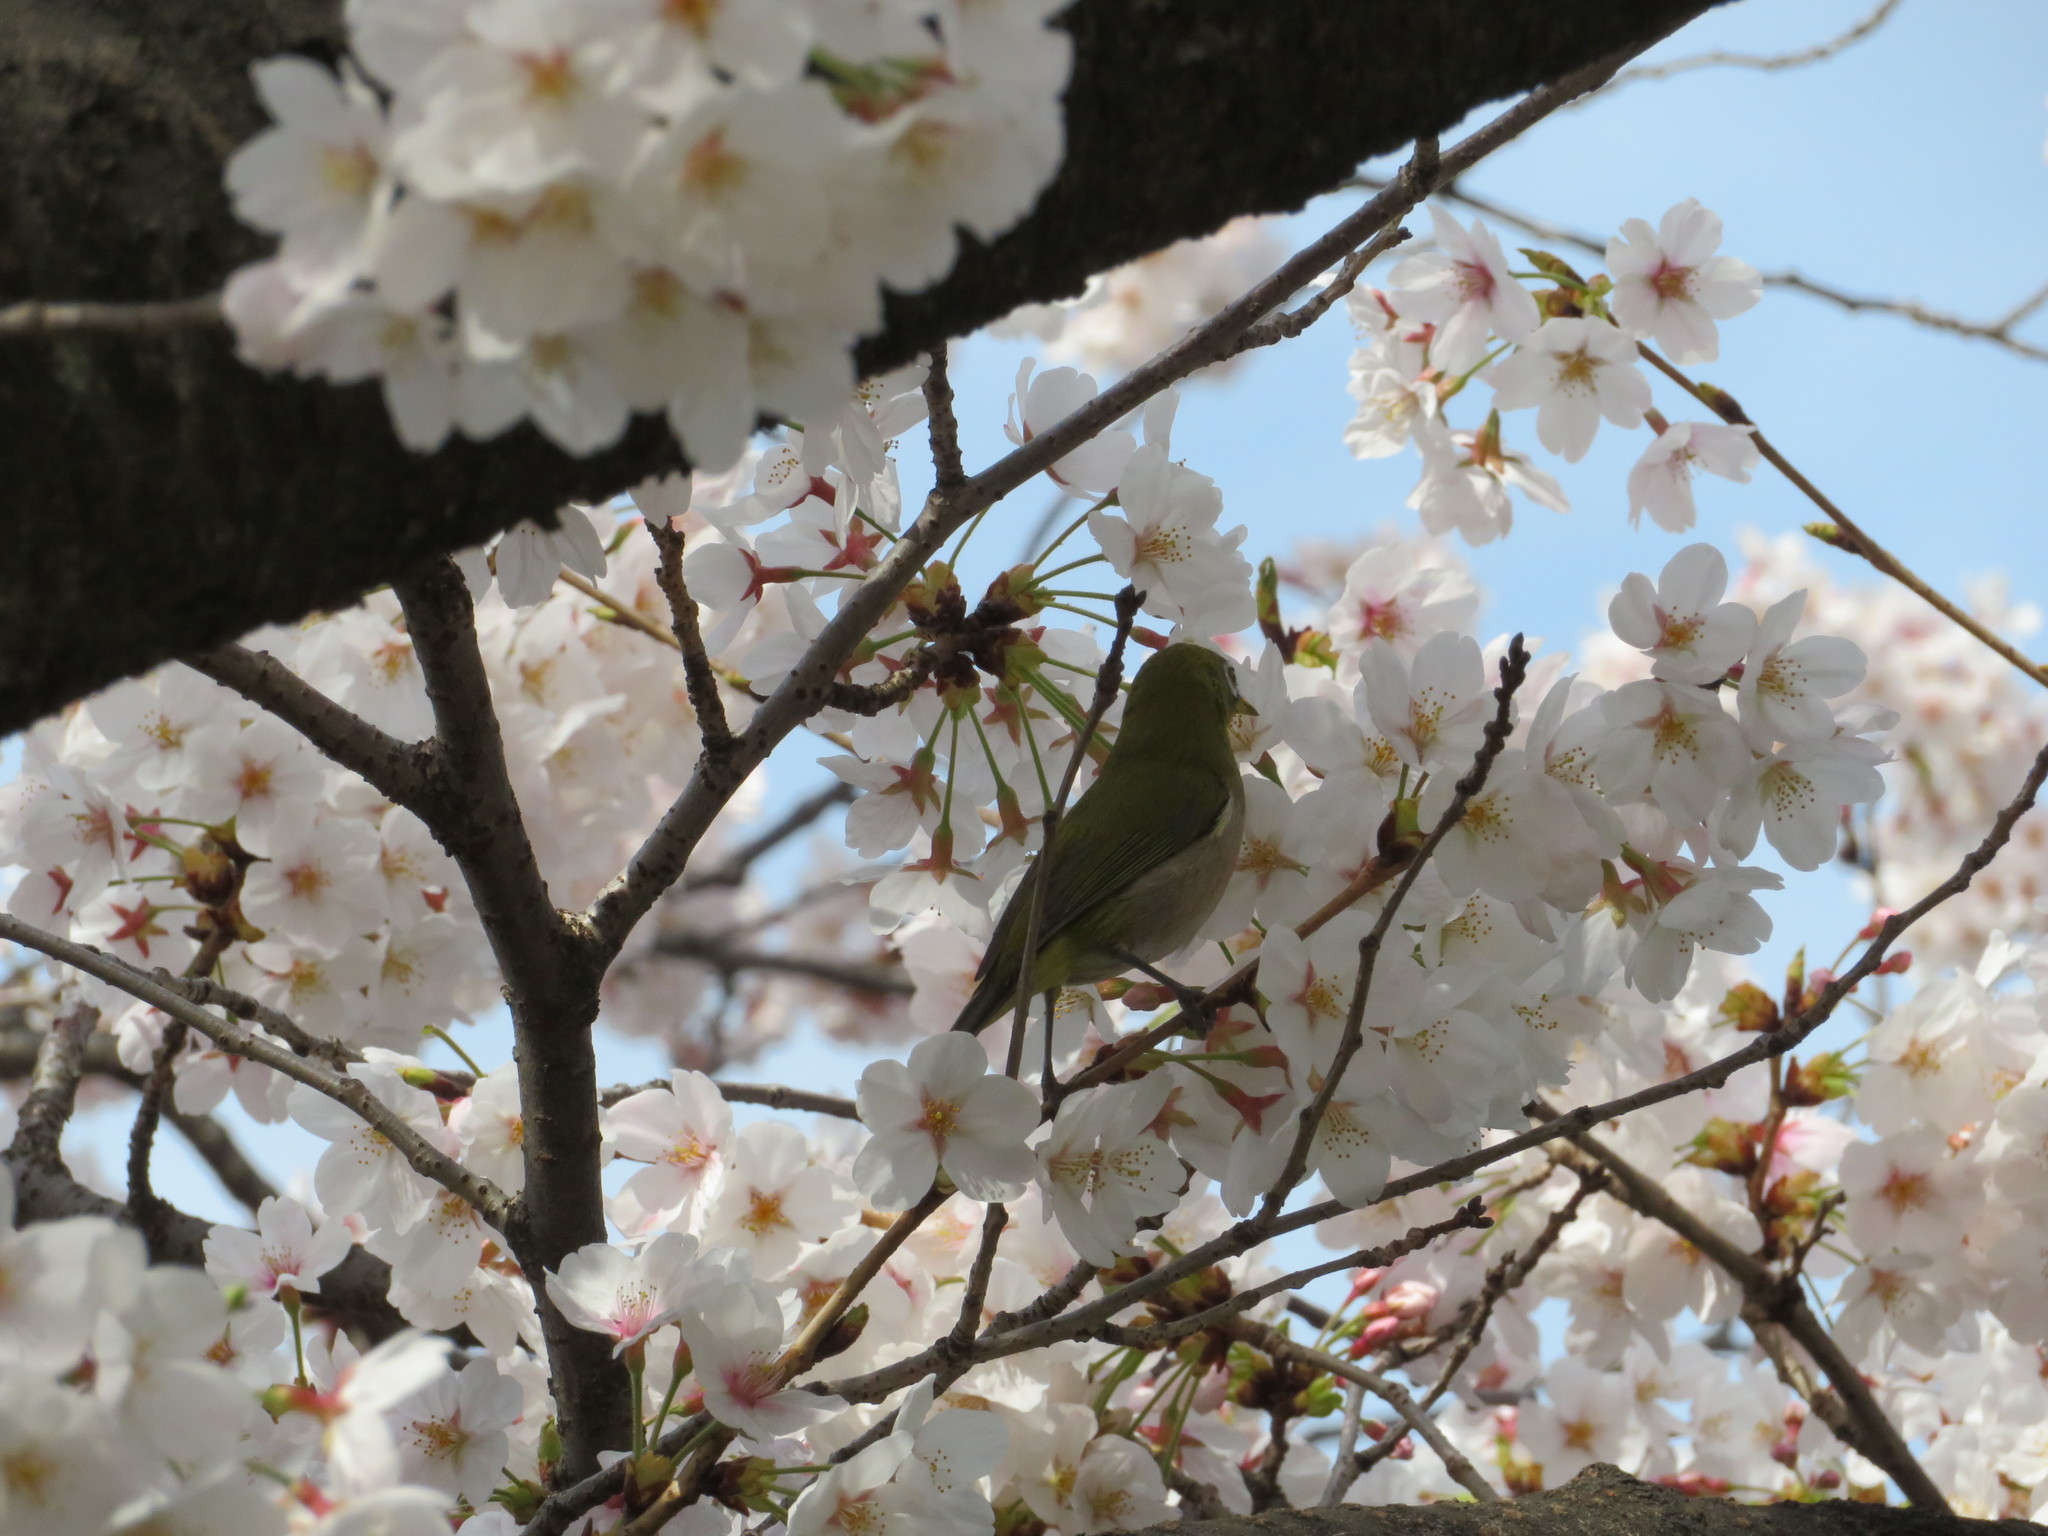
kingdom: Animalia
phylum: Chordata
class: Aves
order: Passeriformes
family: Zosteropidae
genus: Zosterops
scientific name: Zosterops japonicus
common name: Japanese white-eye
